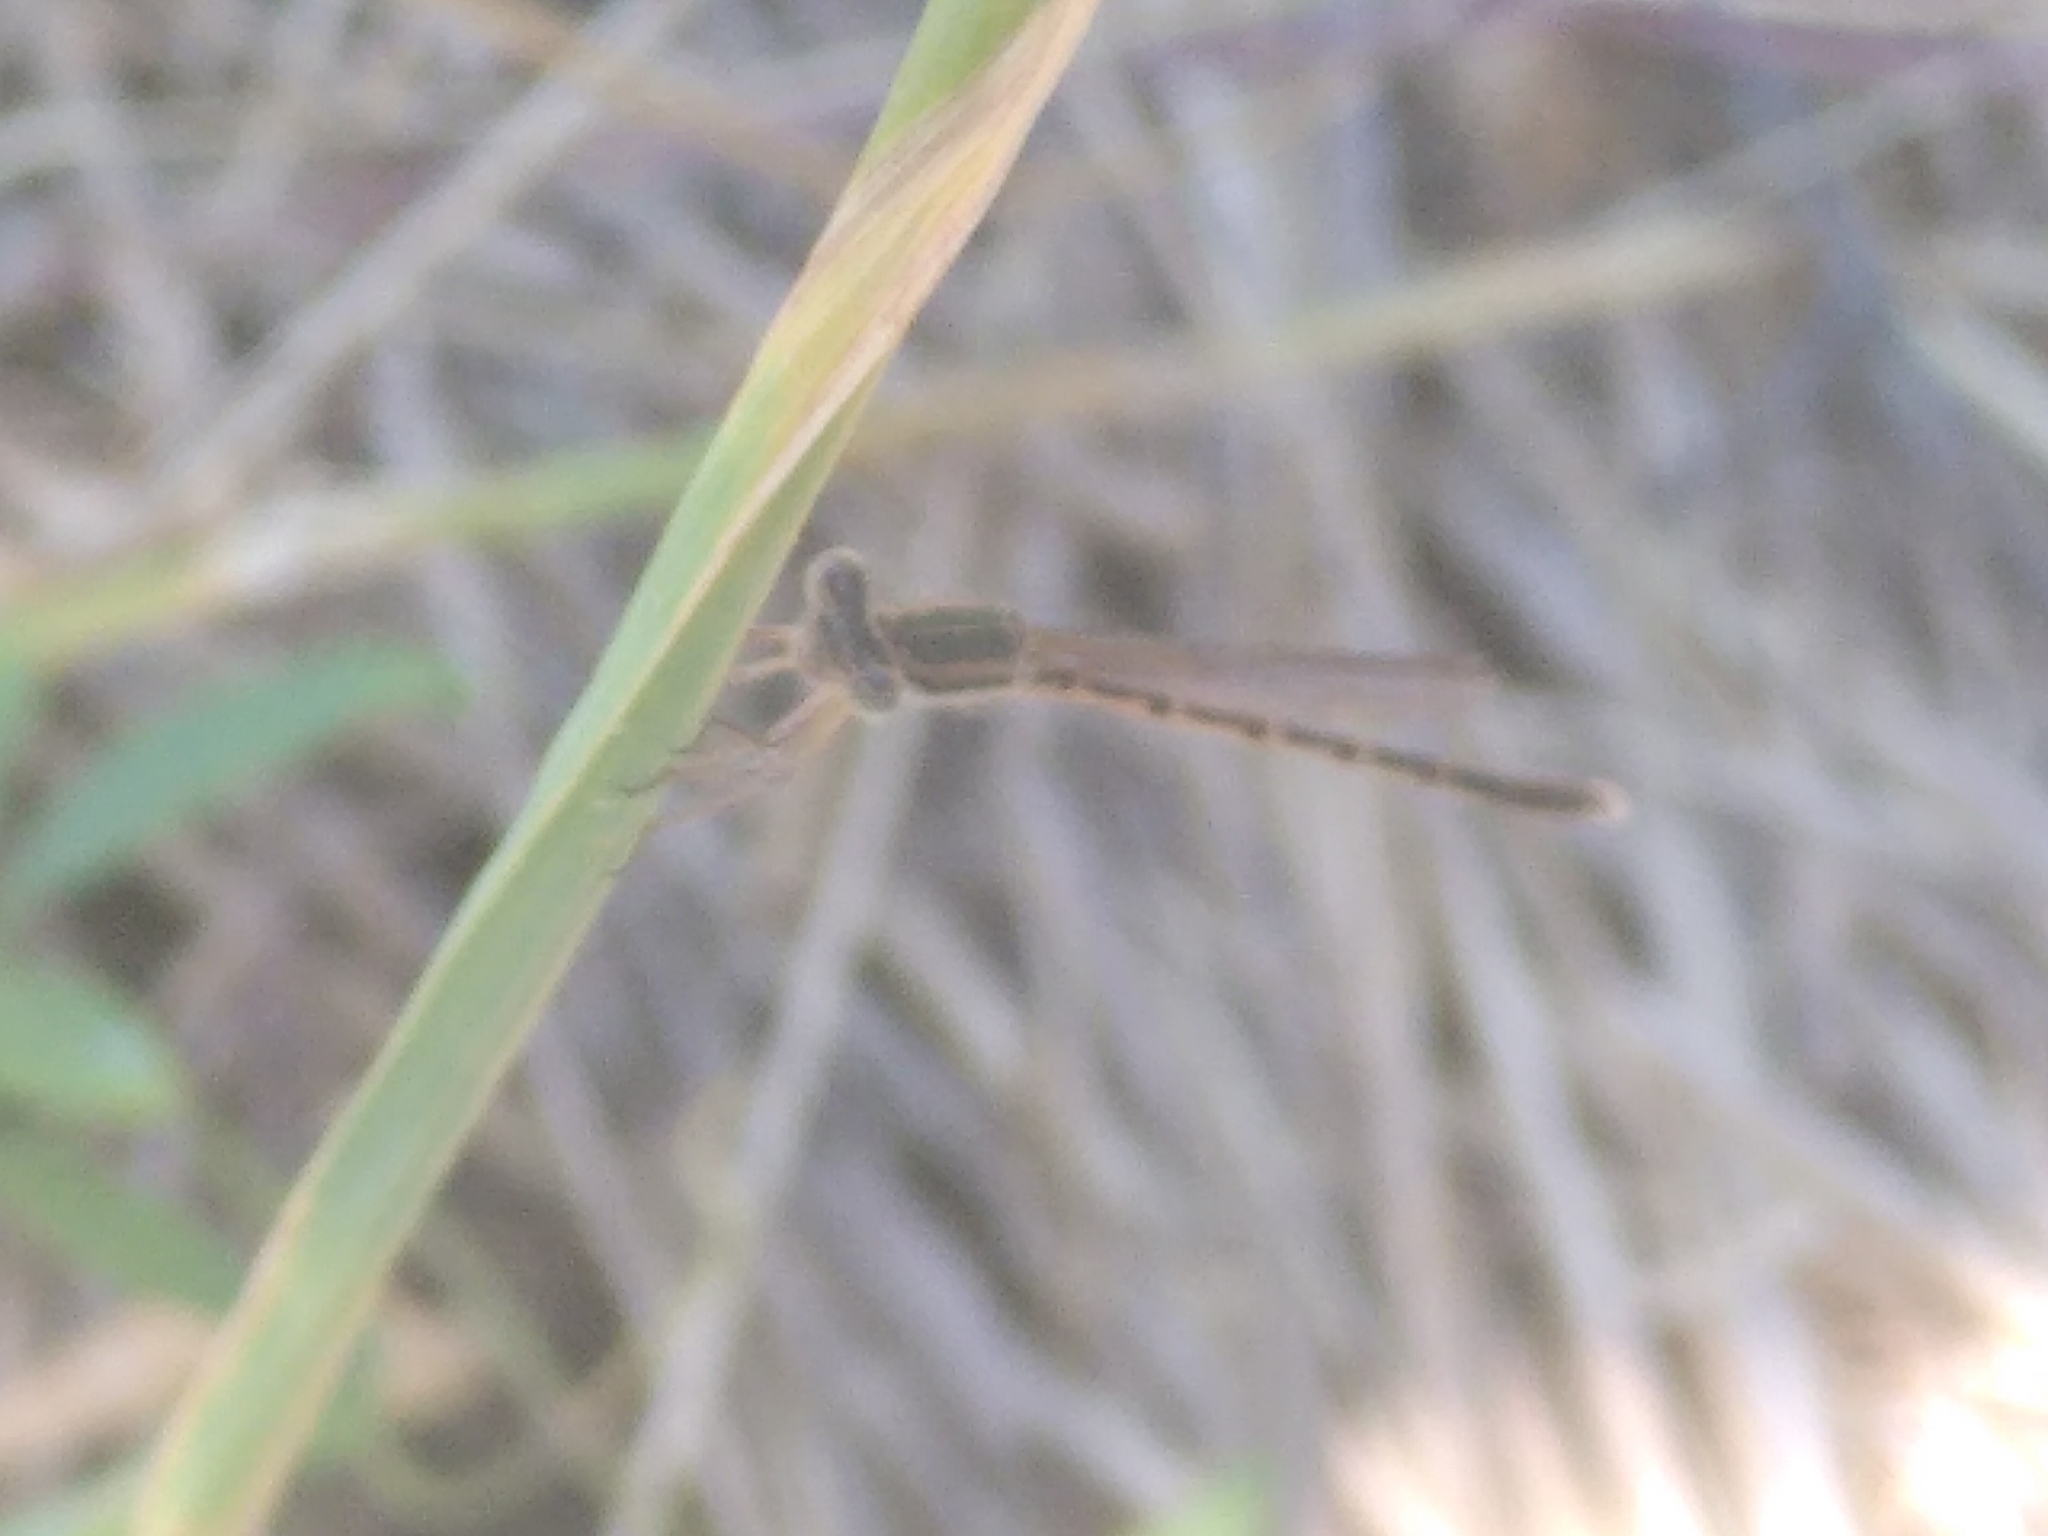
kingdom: Animalia
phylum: Arthropoda
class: Insecta
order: Odonata
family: Lestidae
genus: Sympecma
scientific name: Sympecma fusca
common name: Common winter damsel
